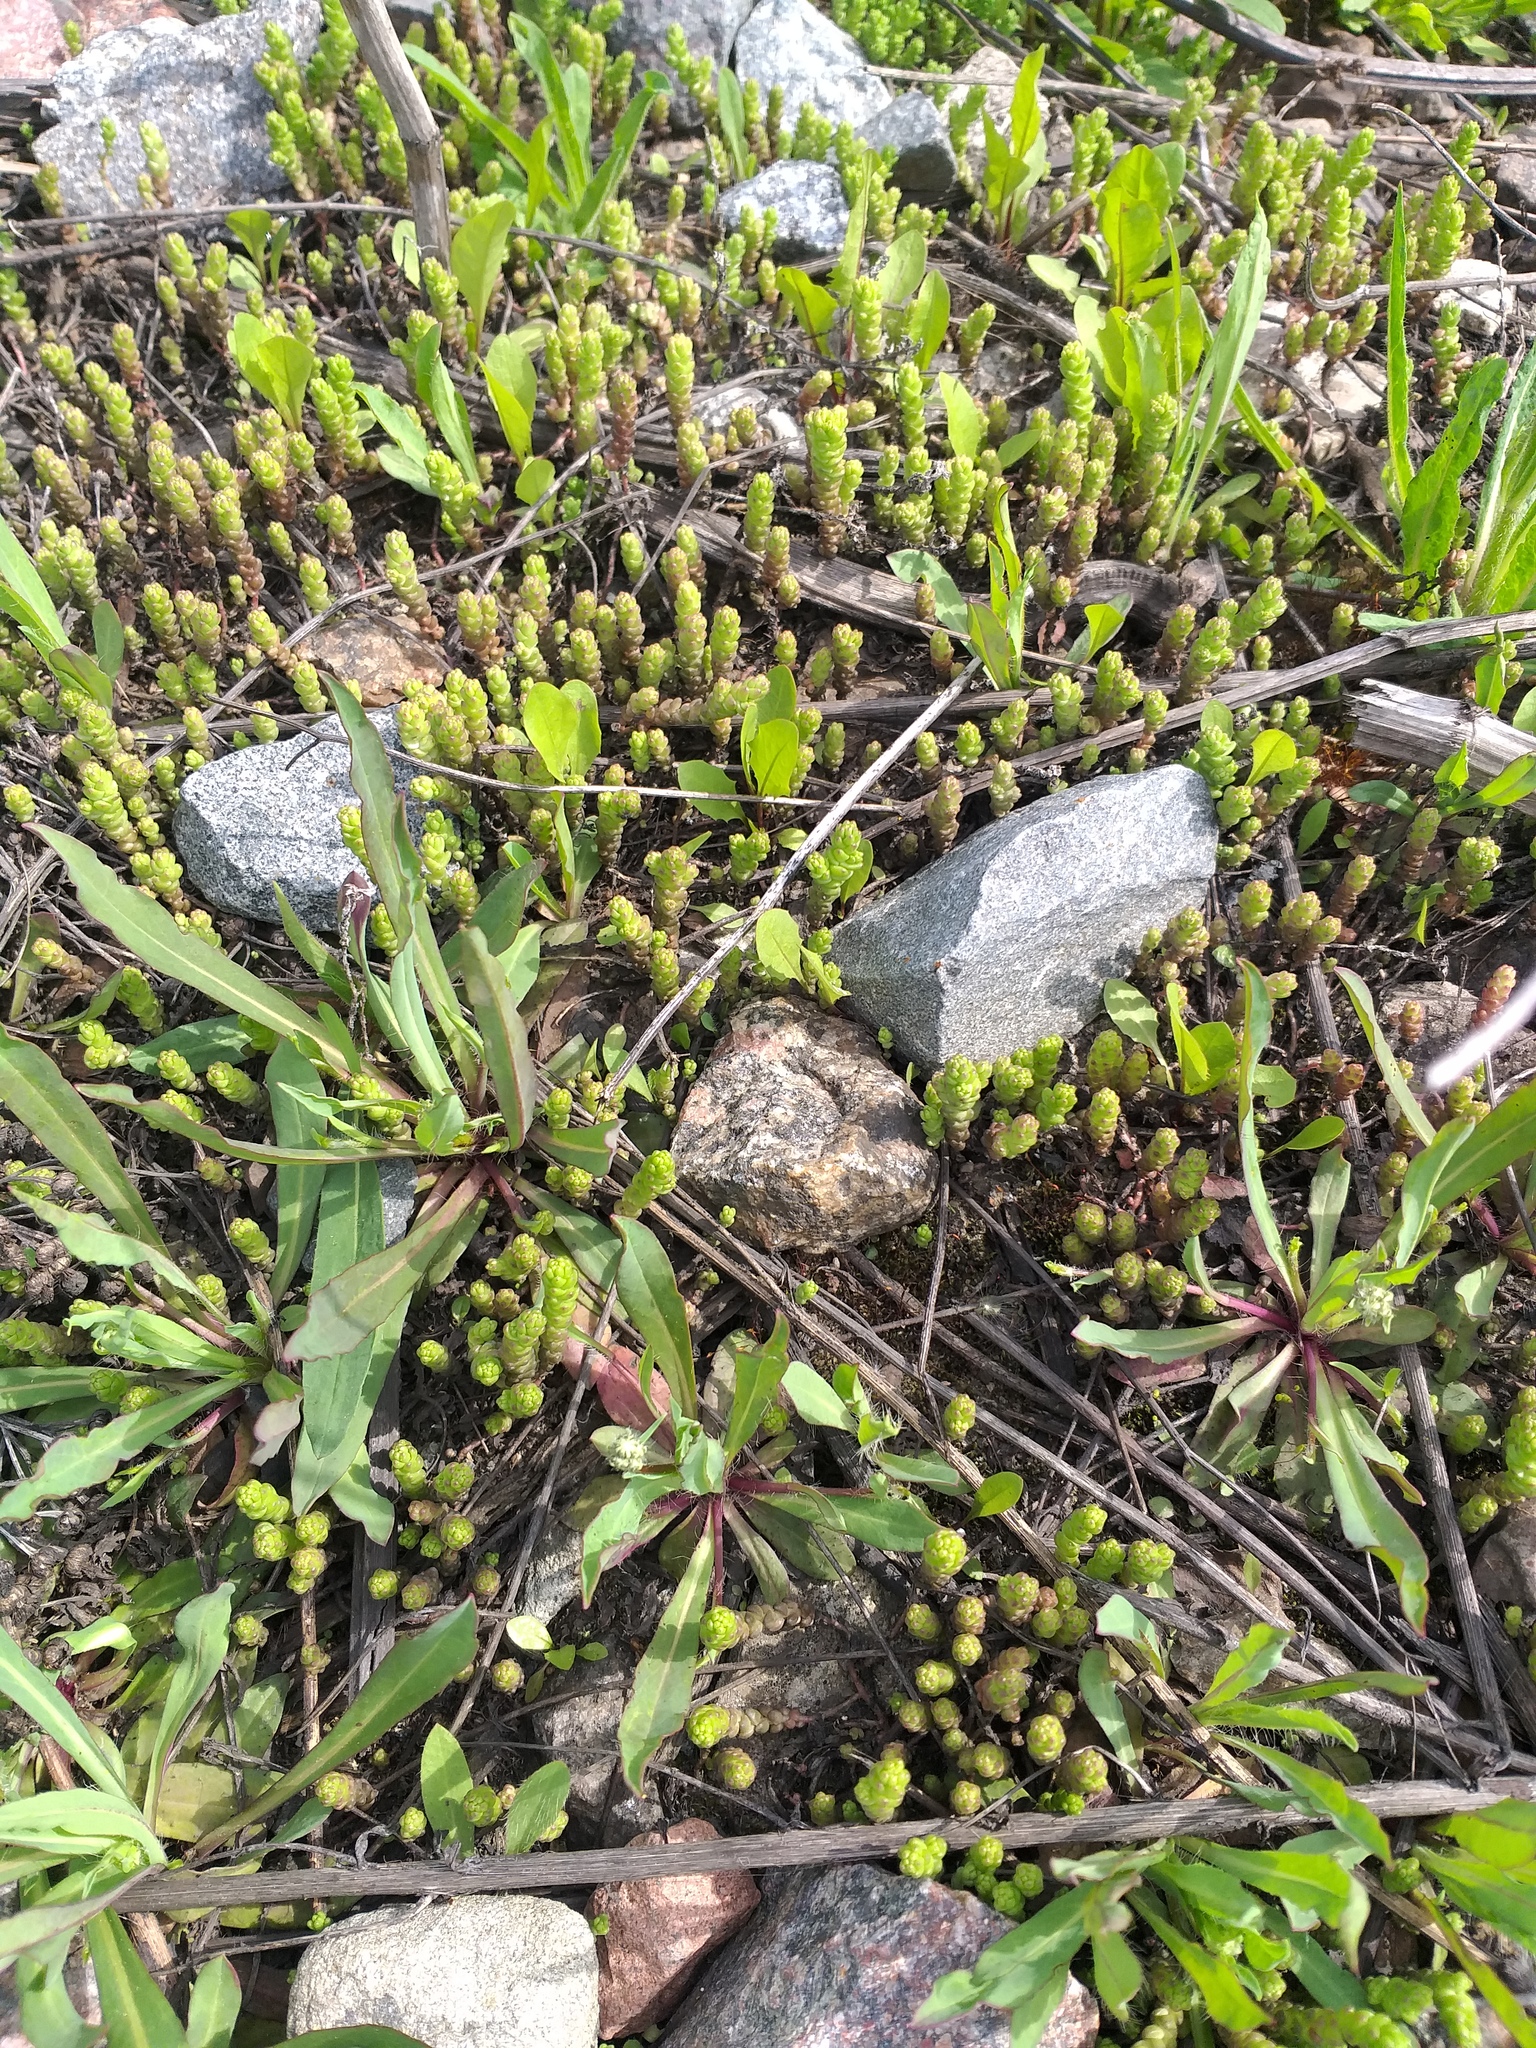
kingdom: Plantae
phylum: Tracheophyta
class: Magnoliopsida
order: Saxifragales
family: Crassulaceae
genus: Sedum
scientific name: Sedum acre
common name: Biting stonecrop
